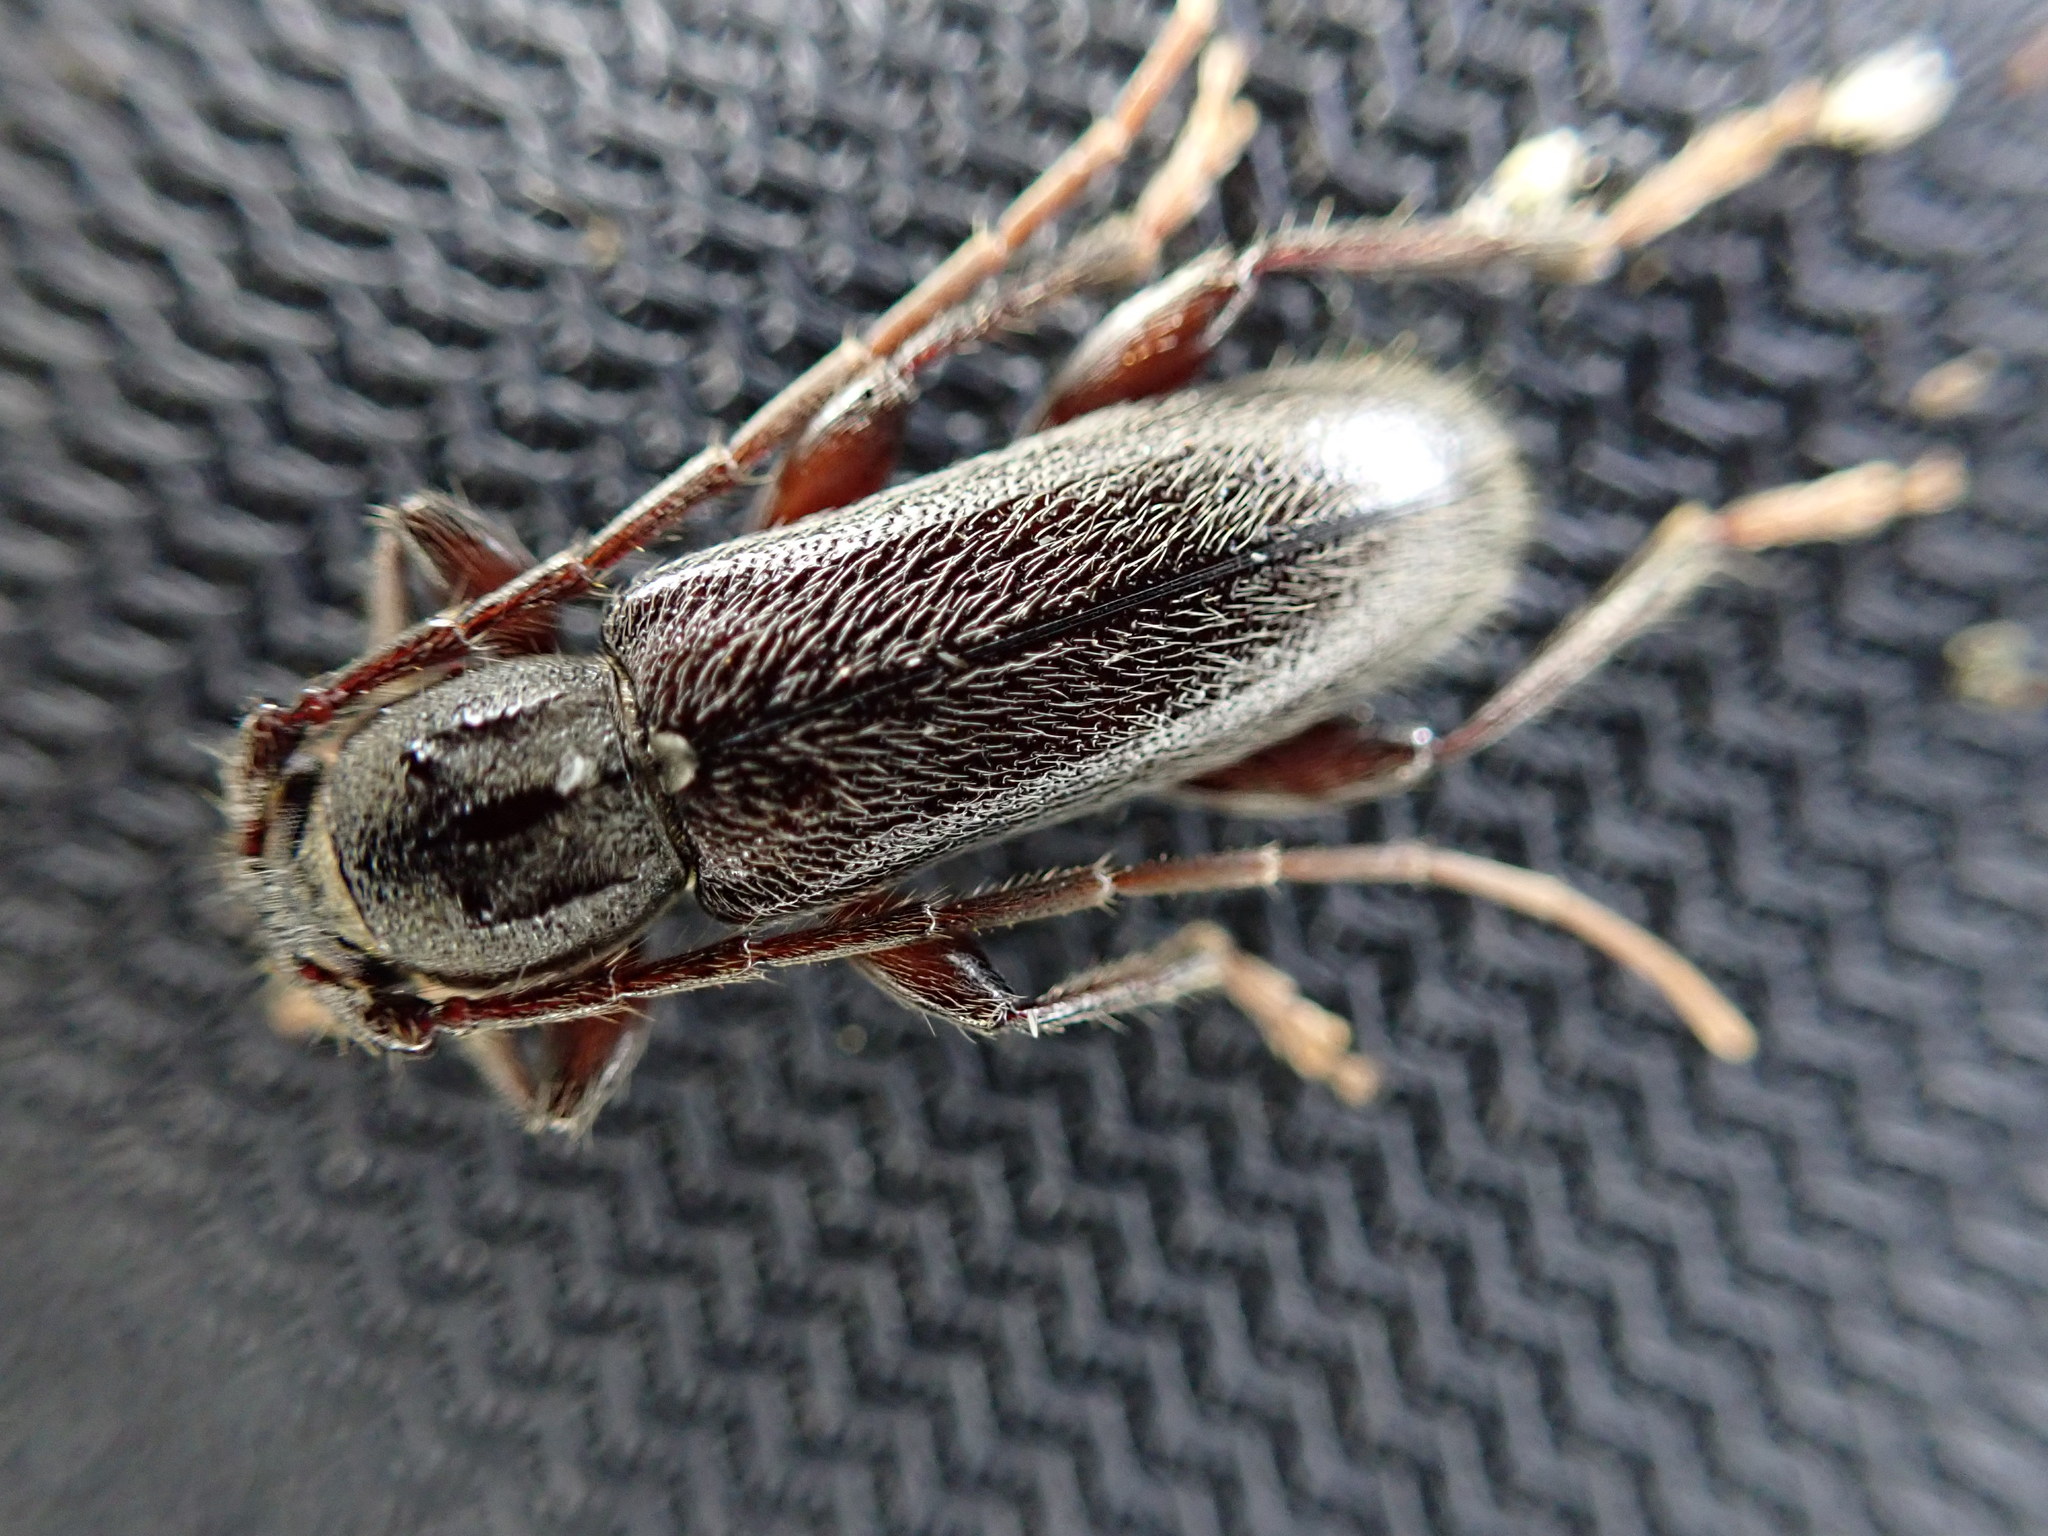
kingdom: Animalia
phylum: Arthropoda
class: Insecta
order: Coleoptera
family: Cerambycidae
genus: Liogramma
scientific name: Liogramma zelandica
